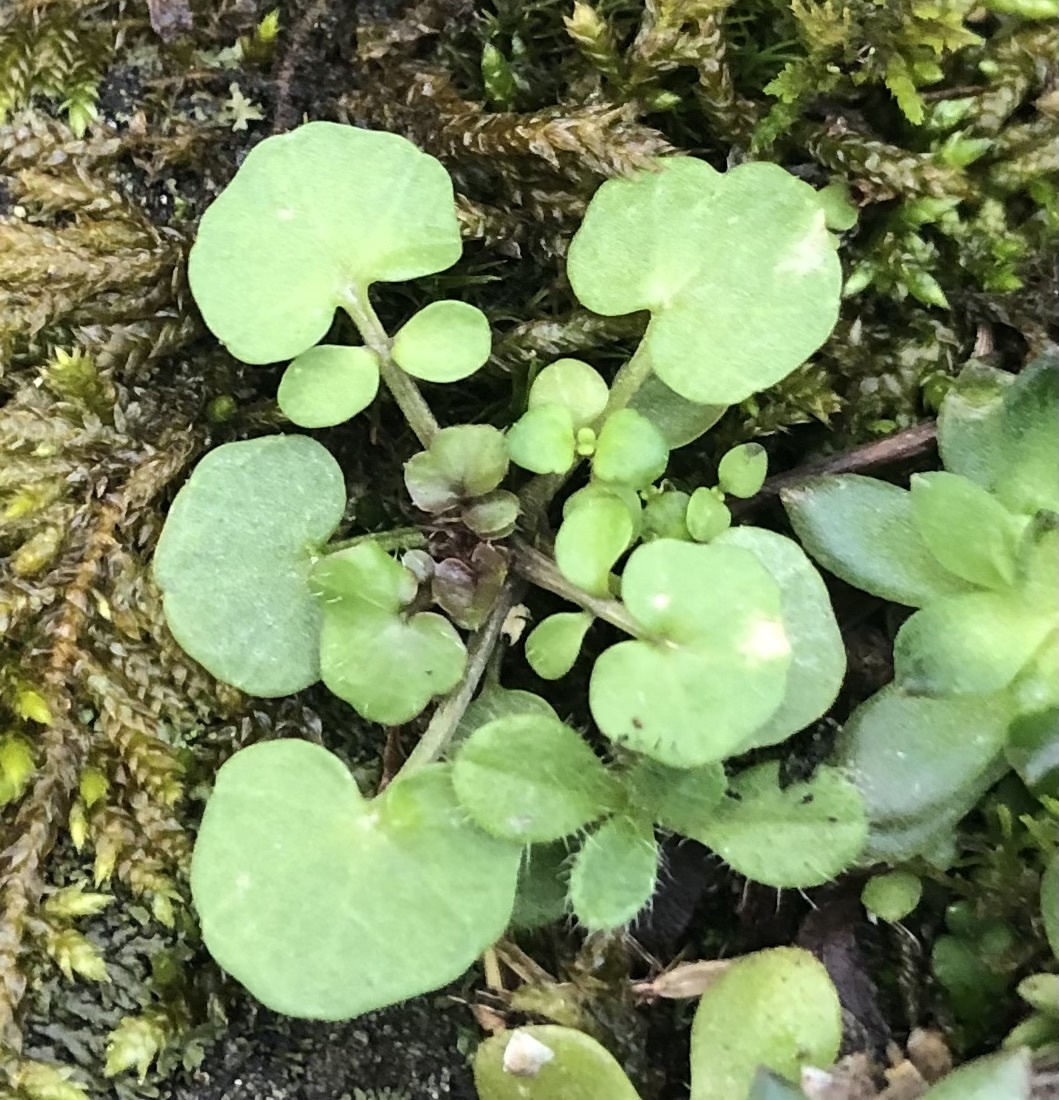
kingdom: Plantae
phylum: Tracheophyta
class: Magnoliopsida
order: Brassicales
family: Brassicaceae
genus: Cardamine
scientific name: Cardamine hirsuta
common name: Hairy bittercress
